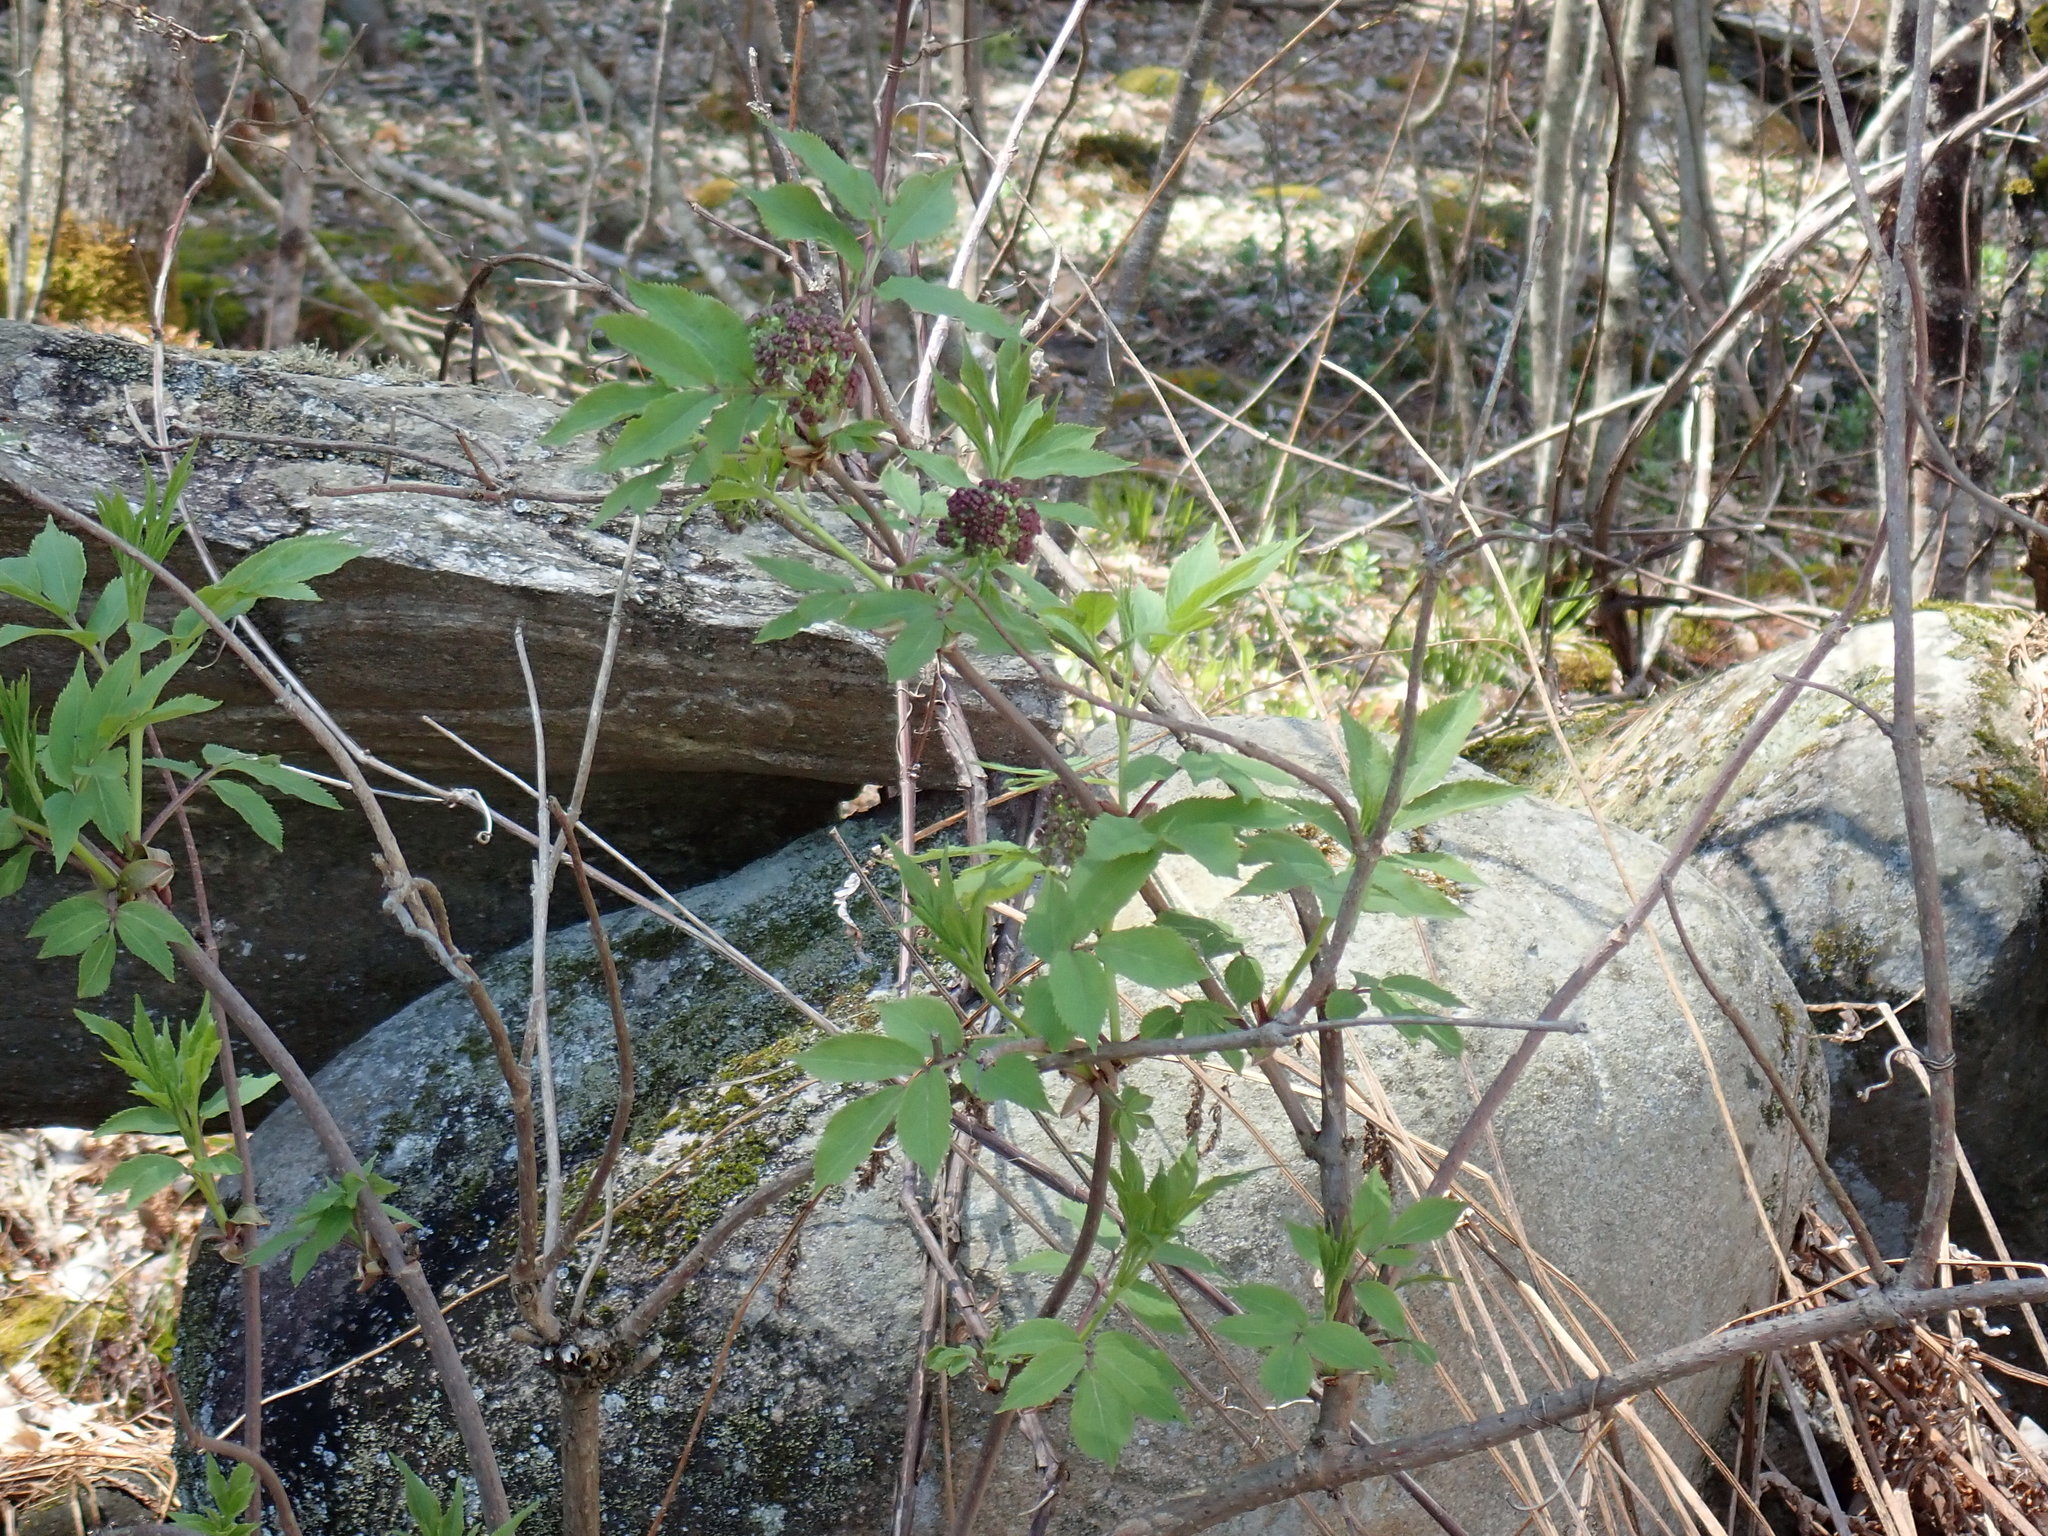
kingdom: Plantae
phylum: Tracheophyta
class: Magnoliopsida
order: Dipsacales
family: Viburnaceae
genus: Sambucus
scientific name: Sambucus racemosa
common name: Red-berried elder
